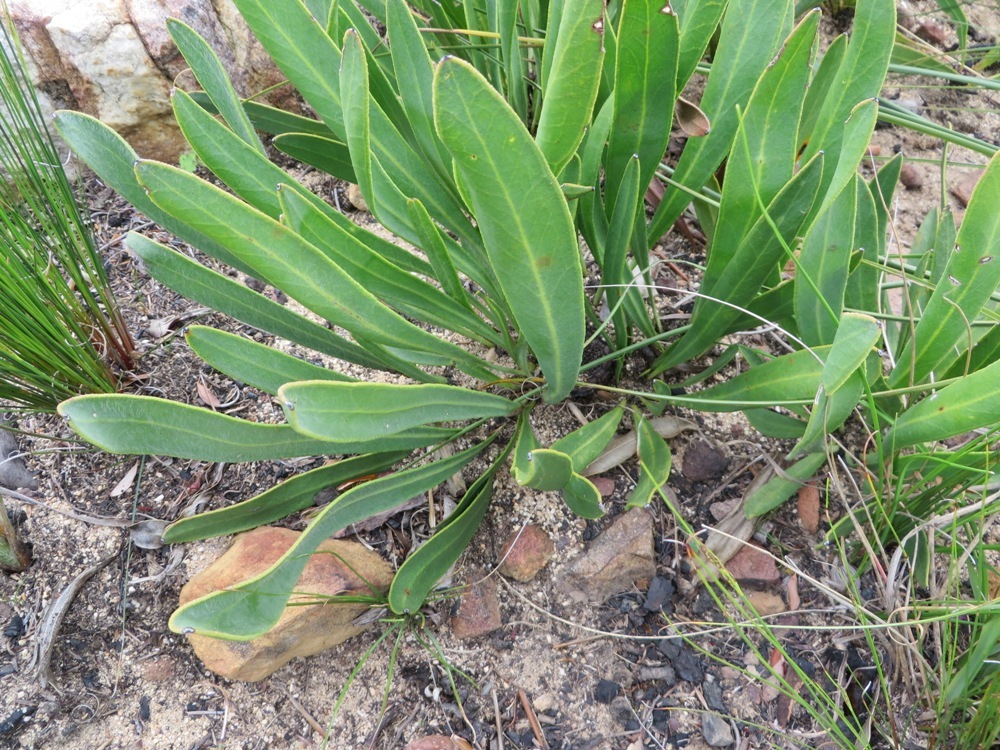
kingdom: Plantae
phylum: Tracheophyta
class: Magnoliopsida
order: Proteales
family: Proteaceae
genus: Protea
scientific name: Protea scabra
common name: Sandpaper-leaf sugarbush
